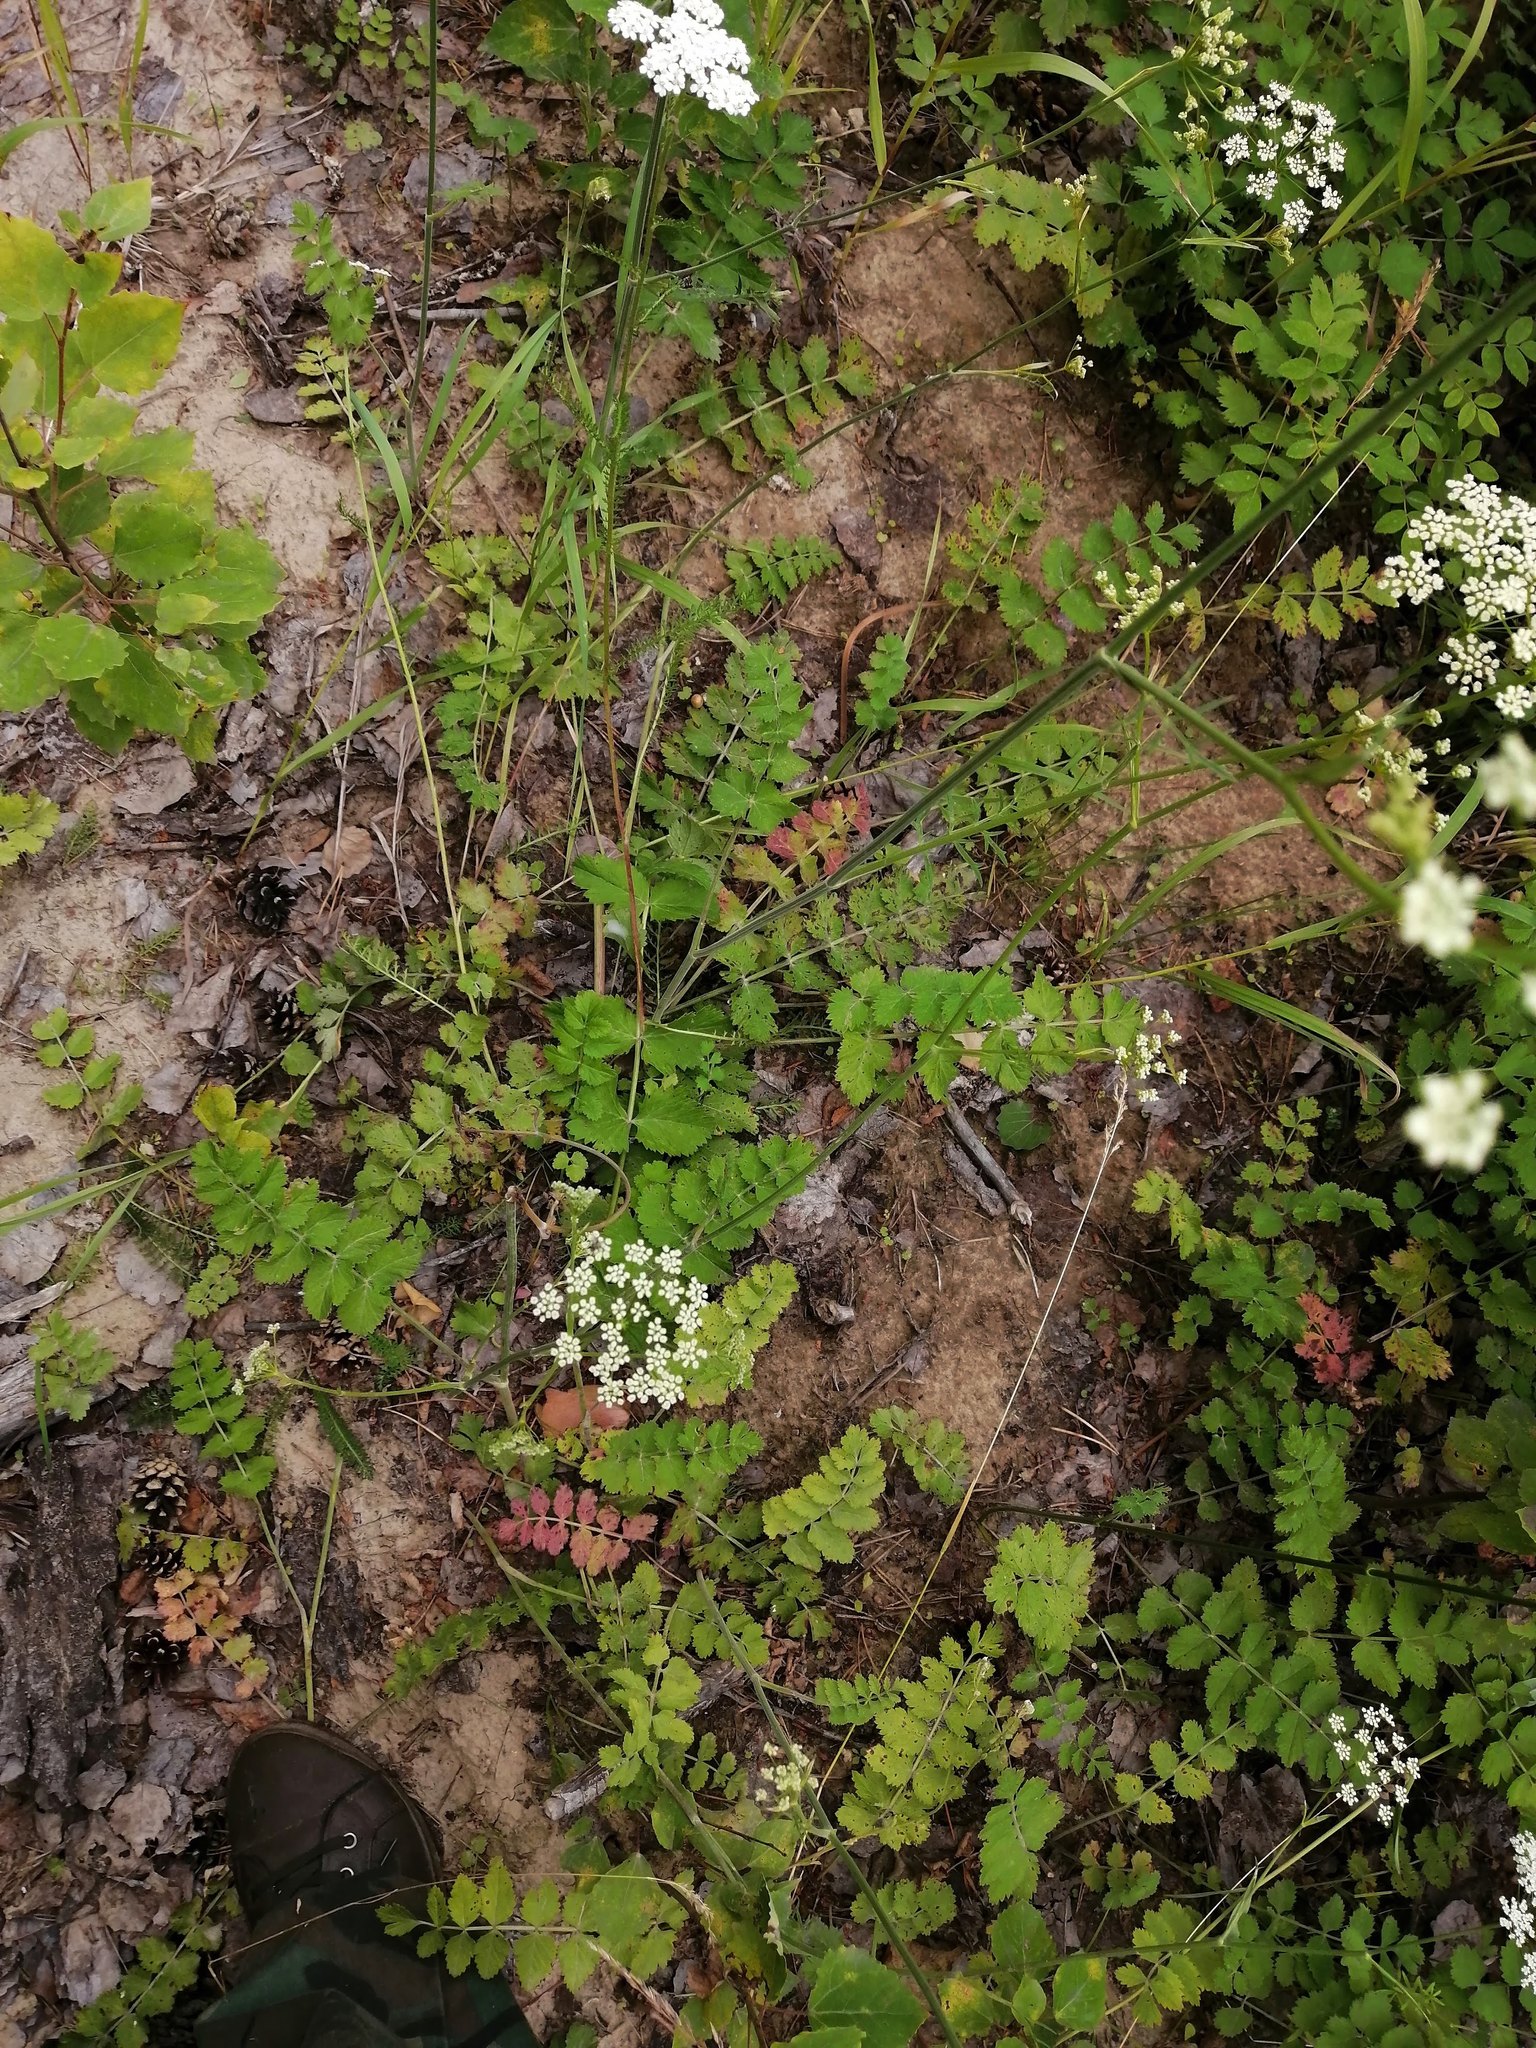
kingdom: Plantae
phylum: Tracheophyta
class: Magnoliopsida
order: Apiales
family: Apiaceae
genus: Pimpinella
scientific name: Pimpinella saxifraga
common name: Burnet-saxifrage
